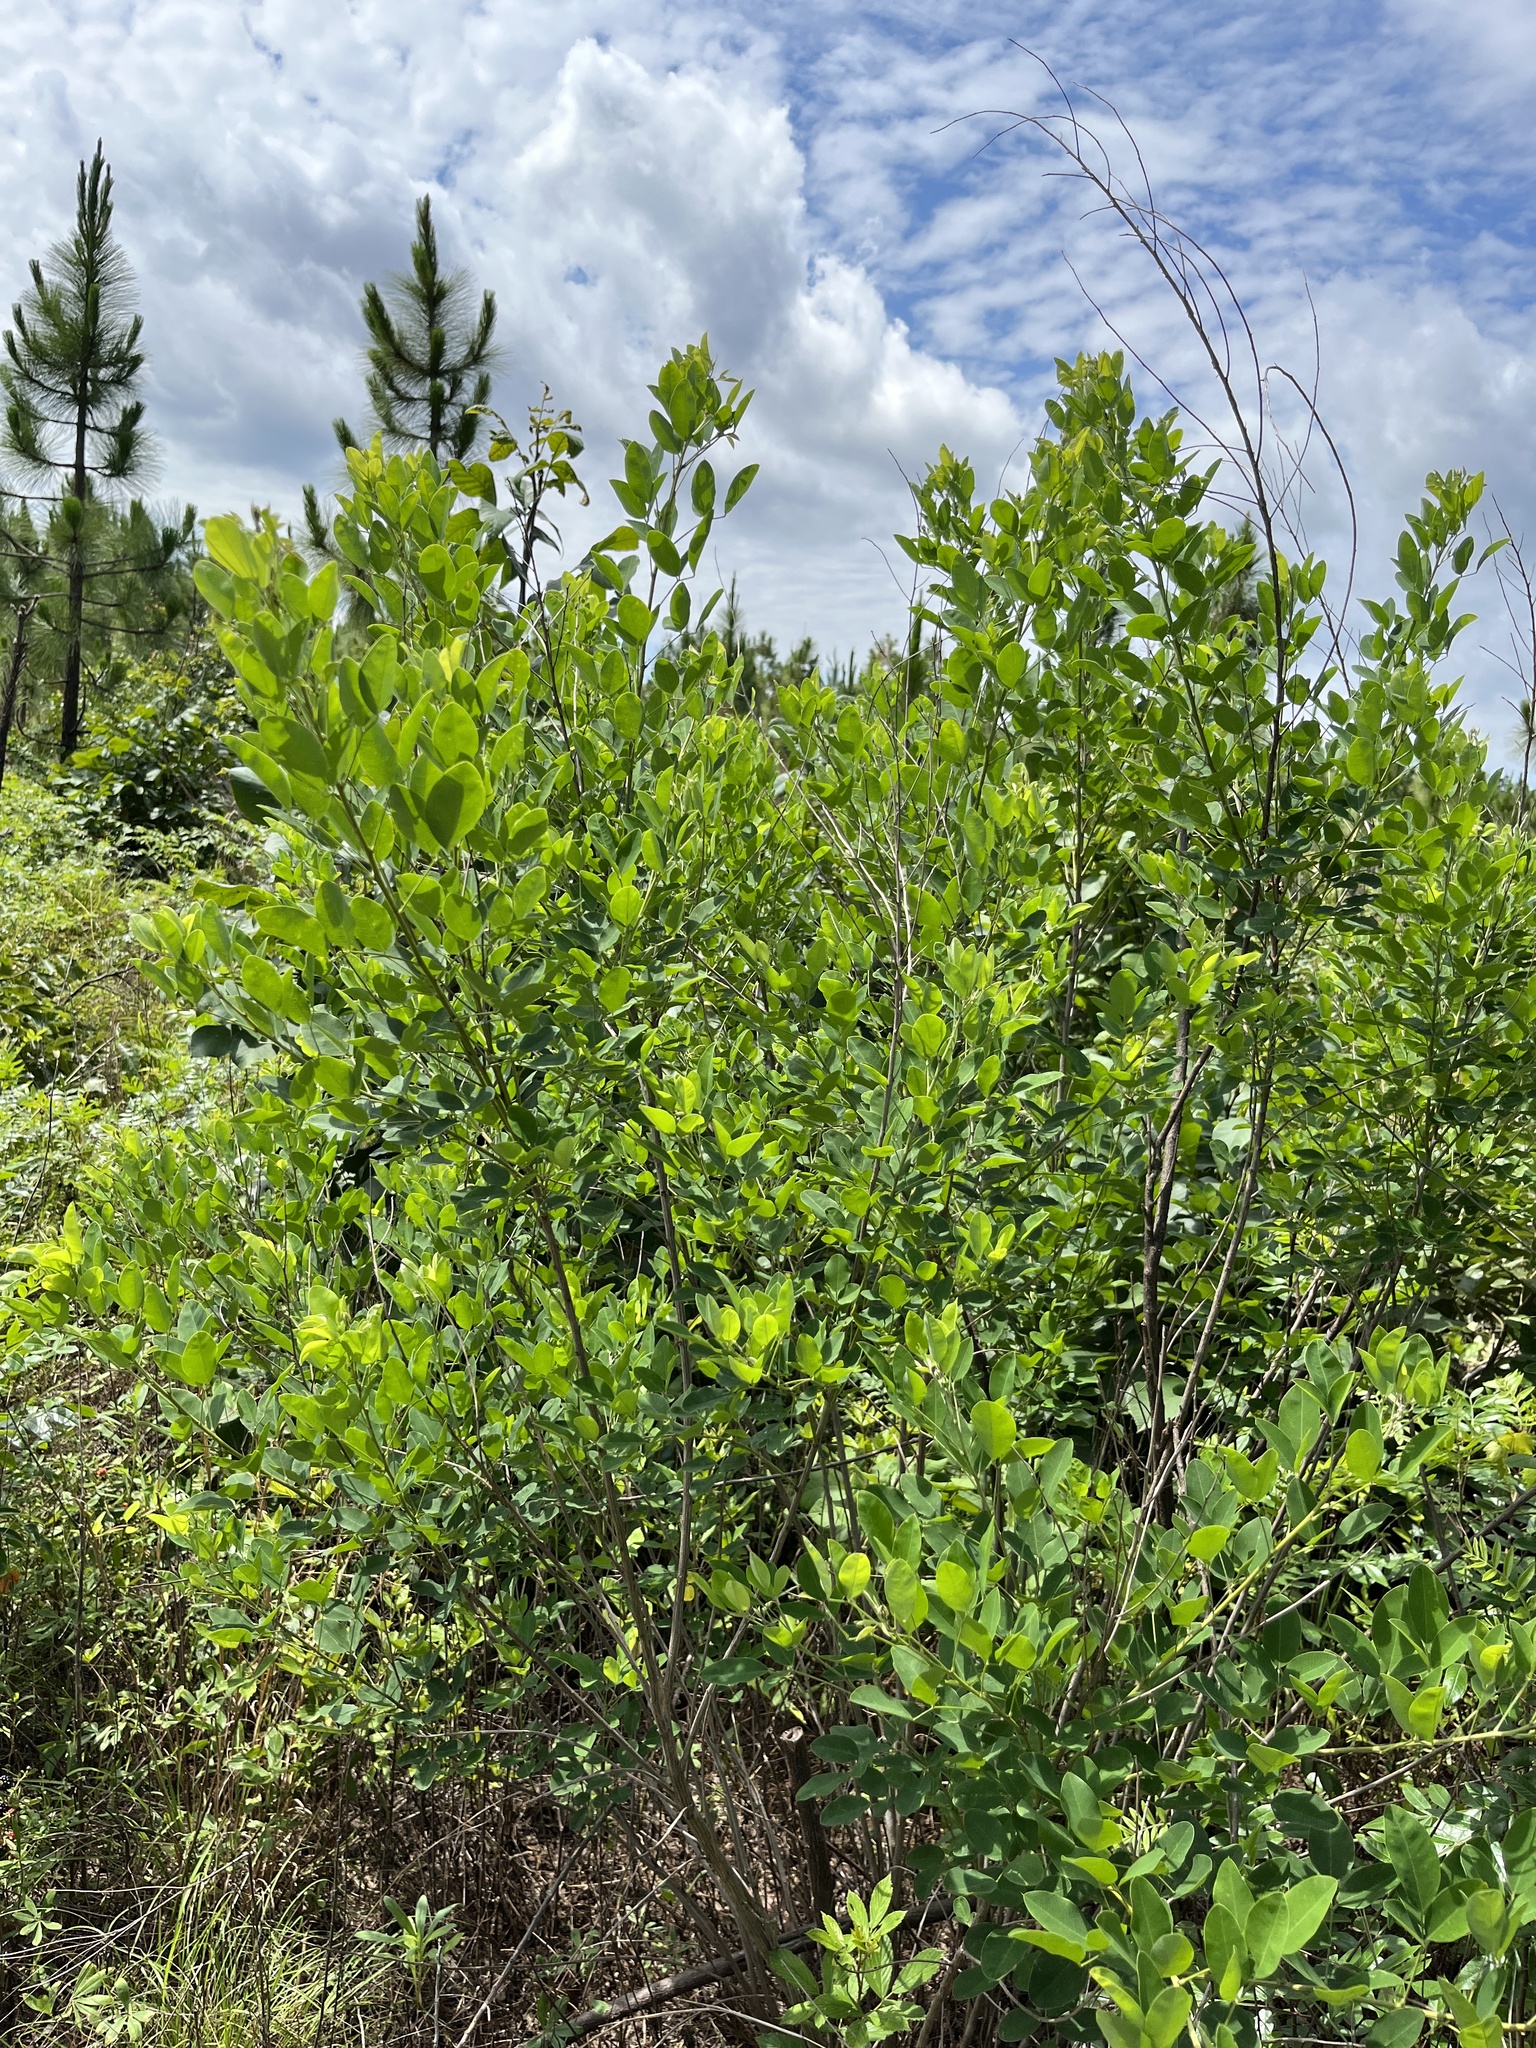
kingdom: Plantae
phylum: Tracheophyta
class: Magnoliopsida
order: Fabales
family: Fabaceae
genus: Lespedeza
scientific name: Lespedeza bicolor
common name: Shrub lespedeza
